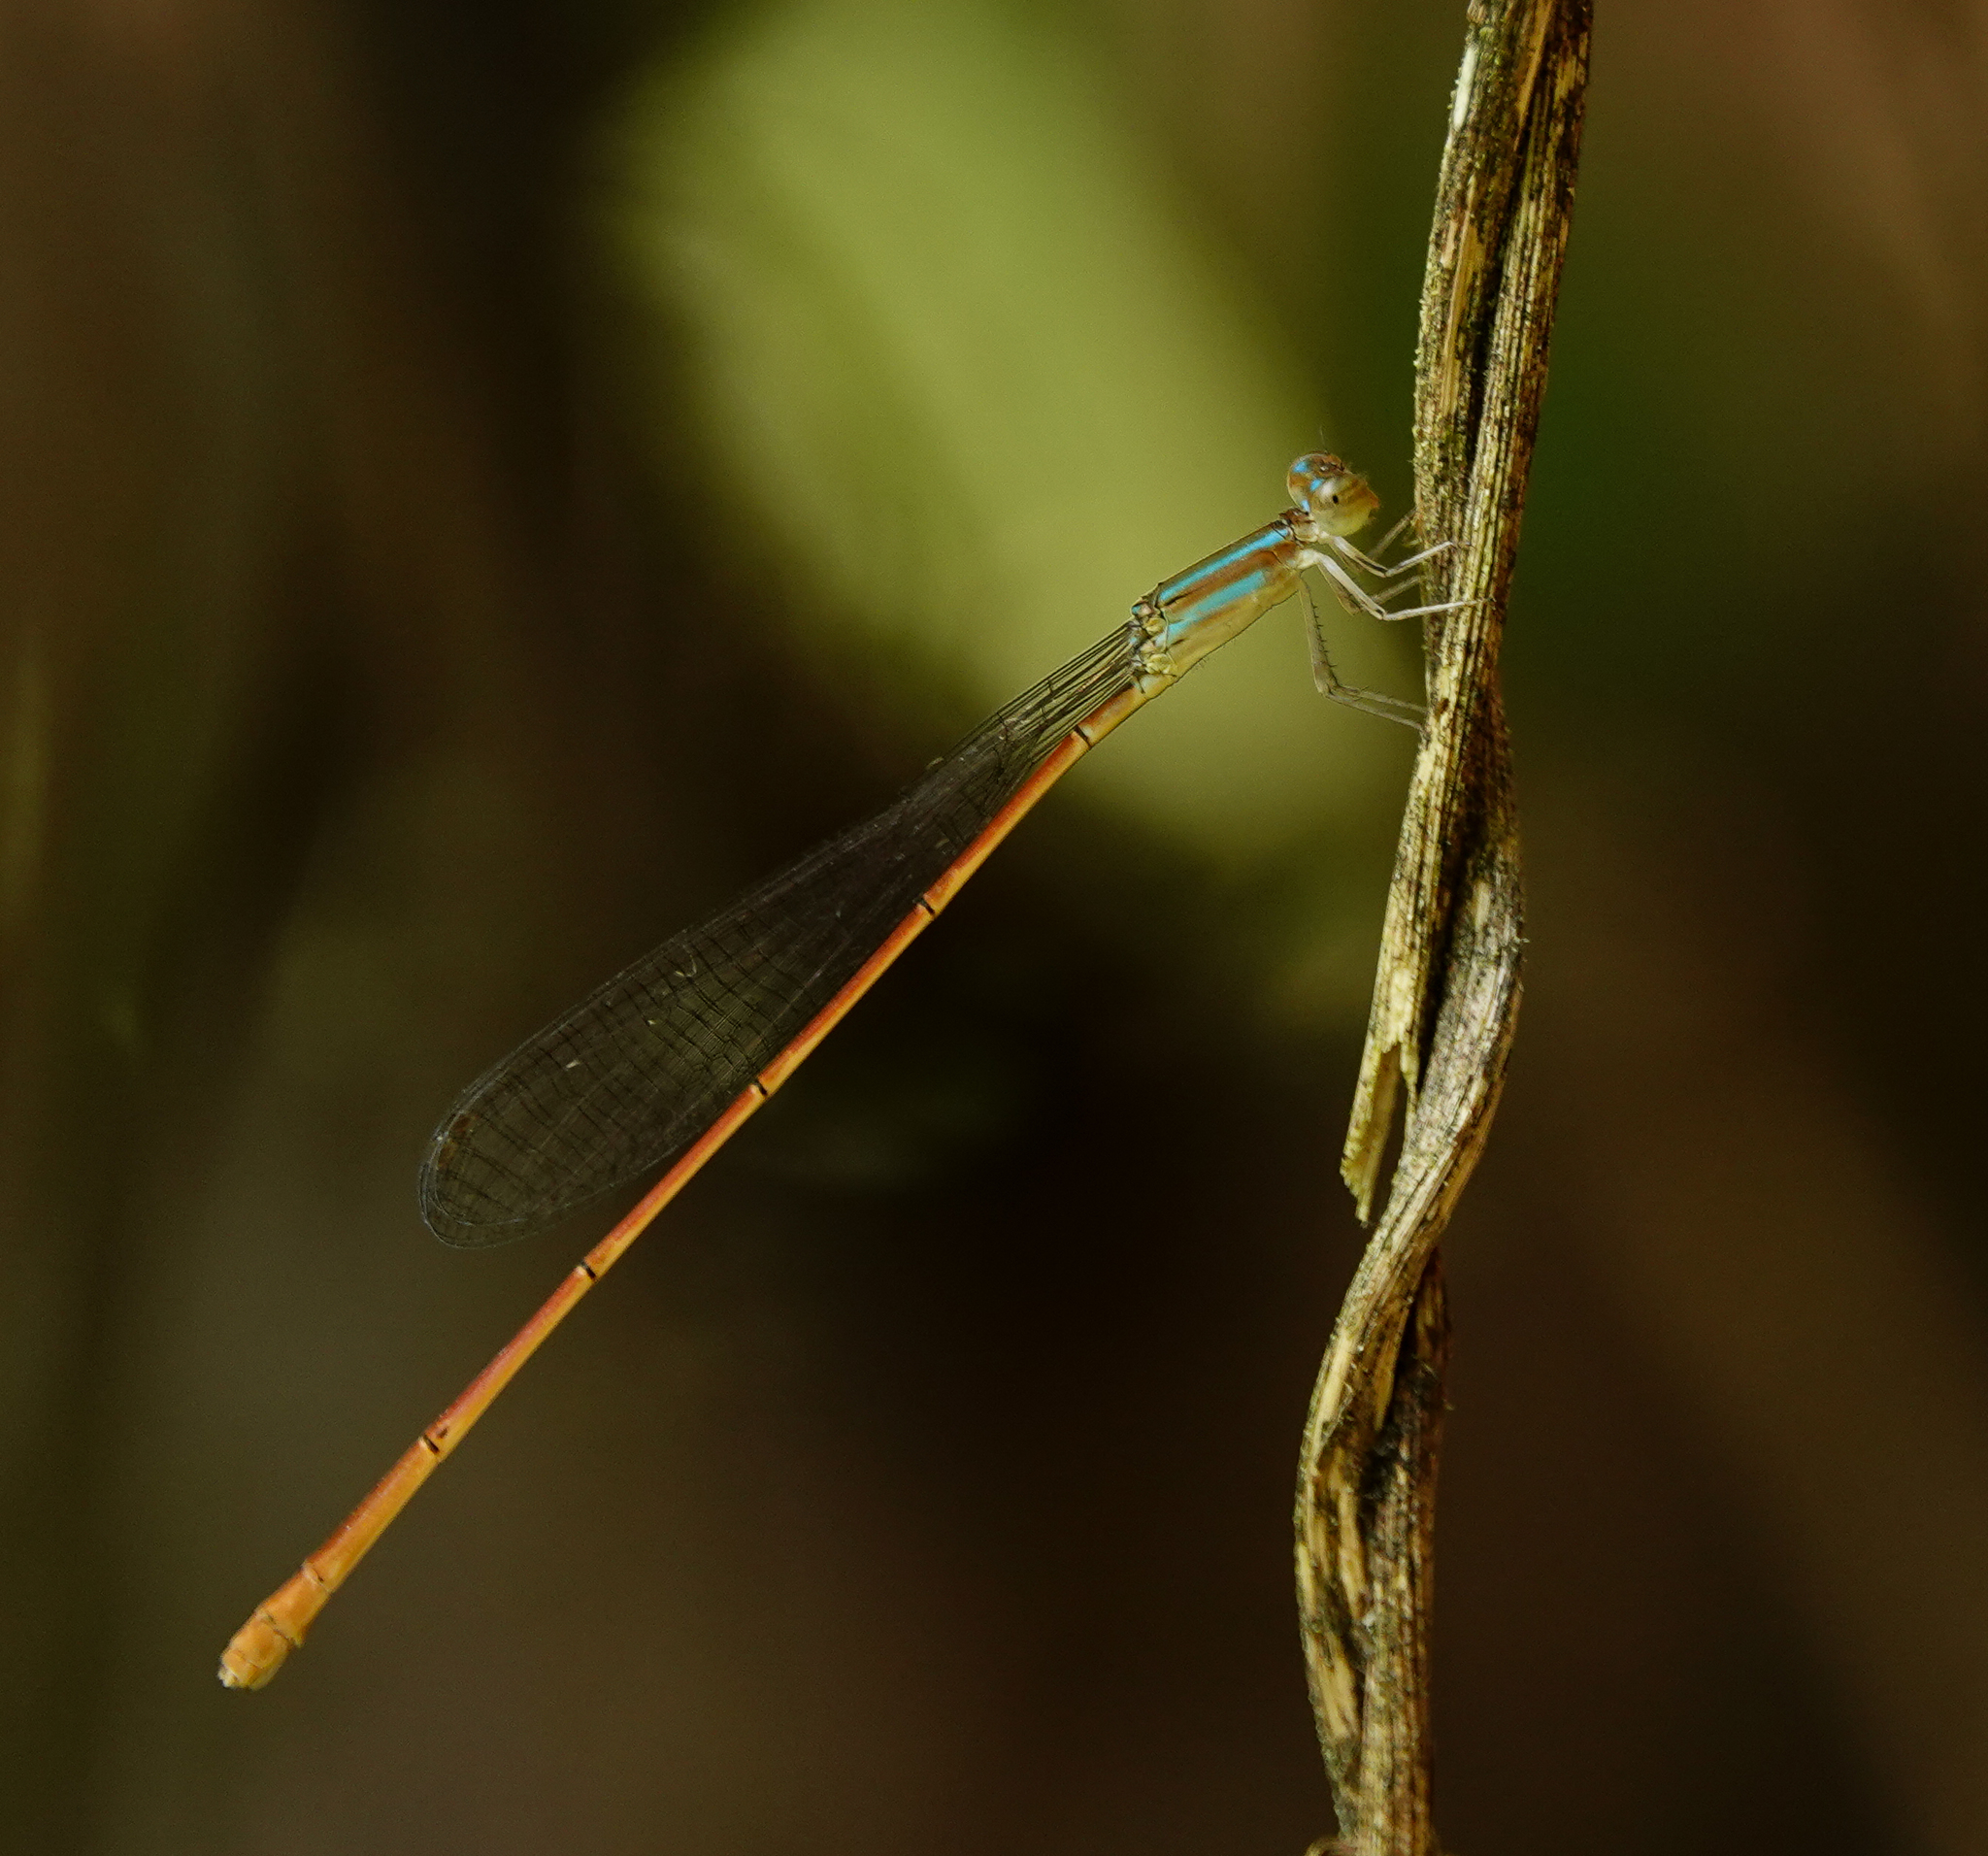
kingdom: Animalia
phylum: Arthropoda
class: Insecta
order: Odonata
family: Coenagrionidae
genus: Aciagrion
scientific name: Aciagrion pallidum
